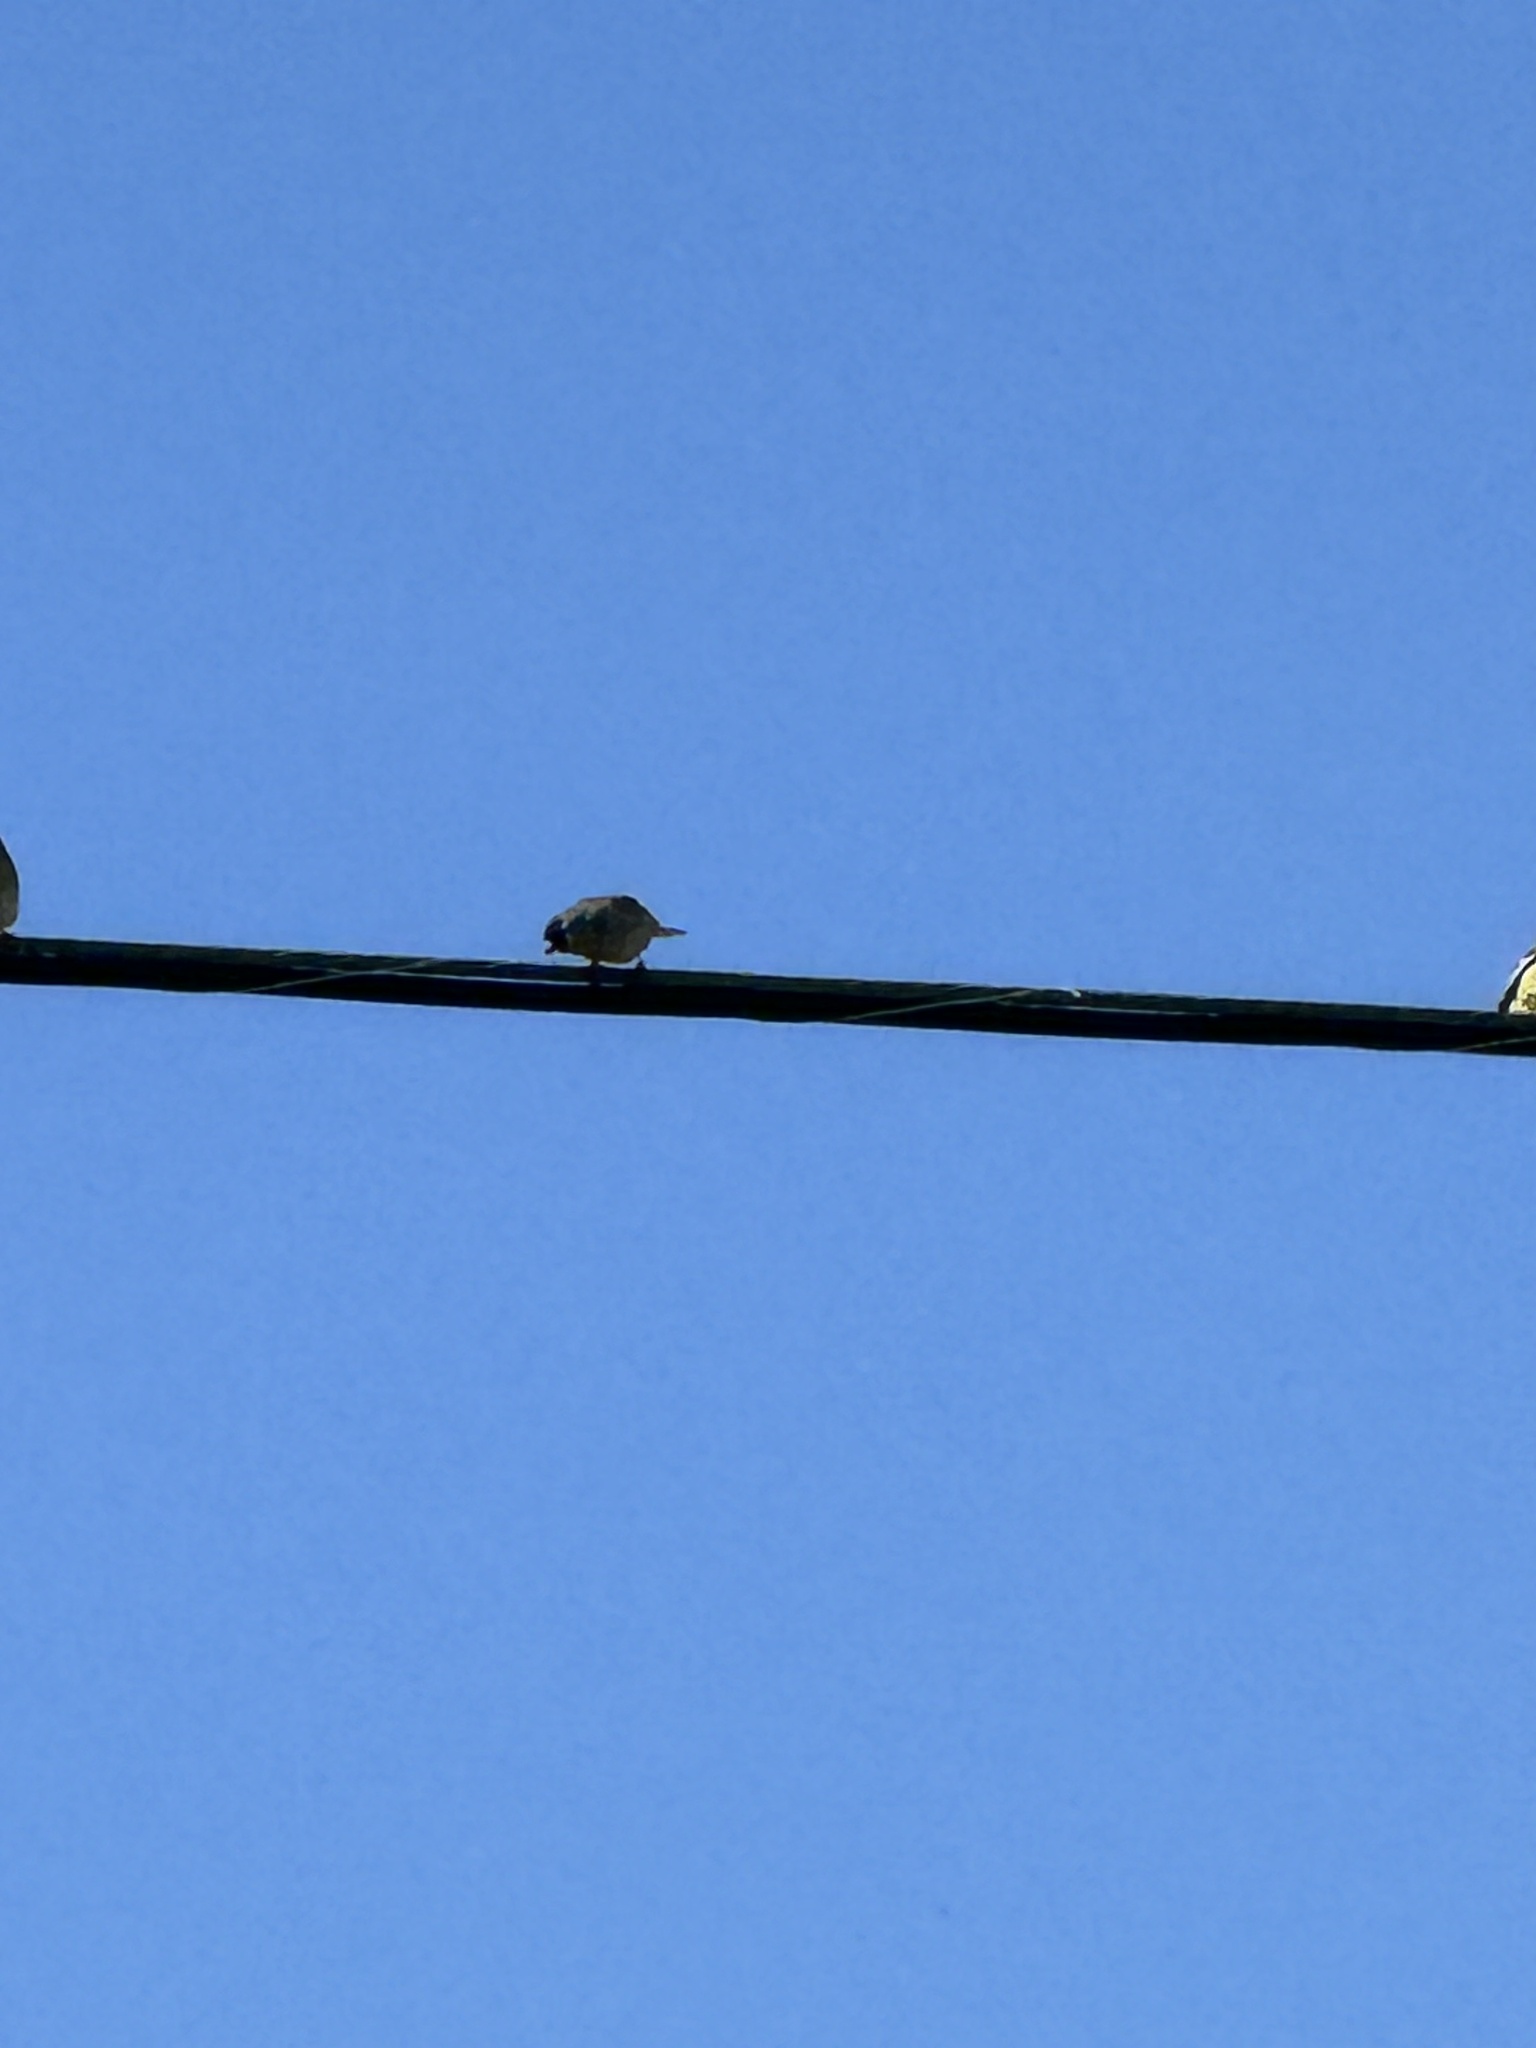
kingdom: Animalia
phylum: Chordata
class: Aves
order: Passeriformes
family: Fringillidae
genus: Spinus
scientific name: Spinus lawrencei
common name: Lawrence's goldfinch
